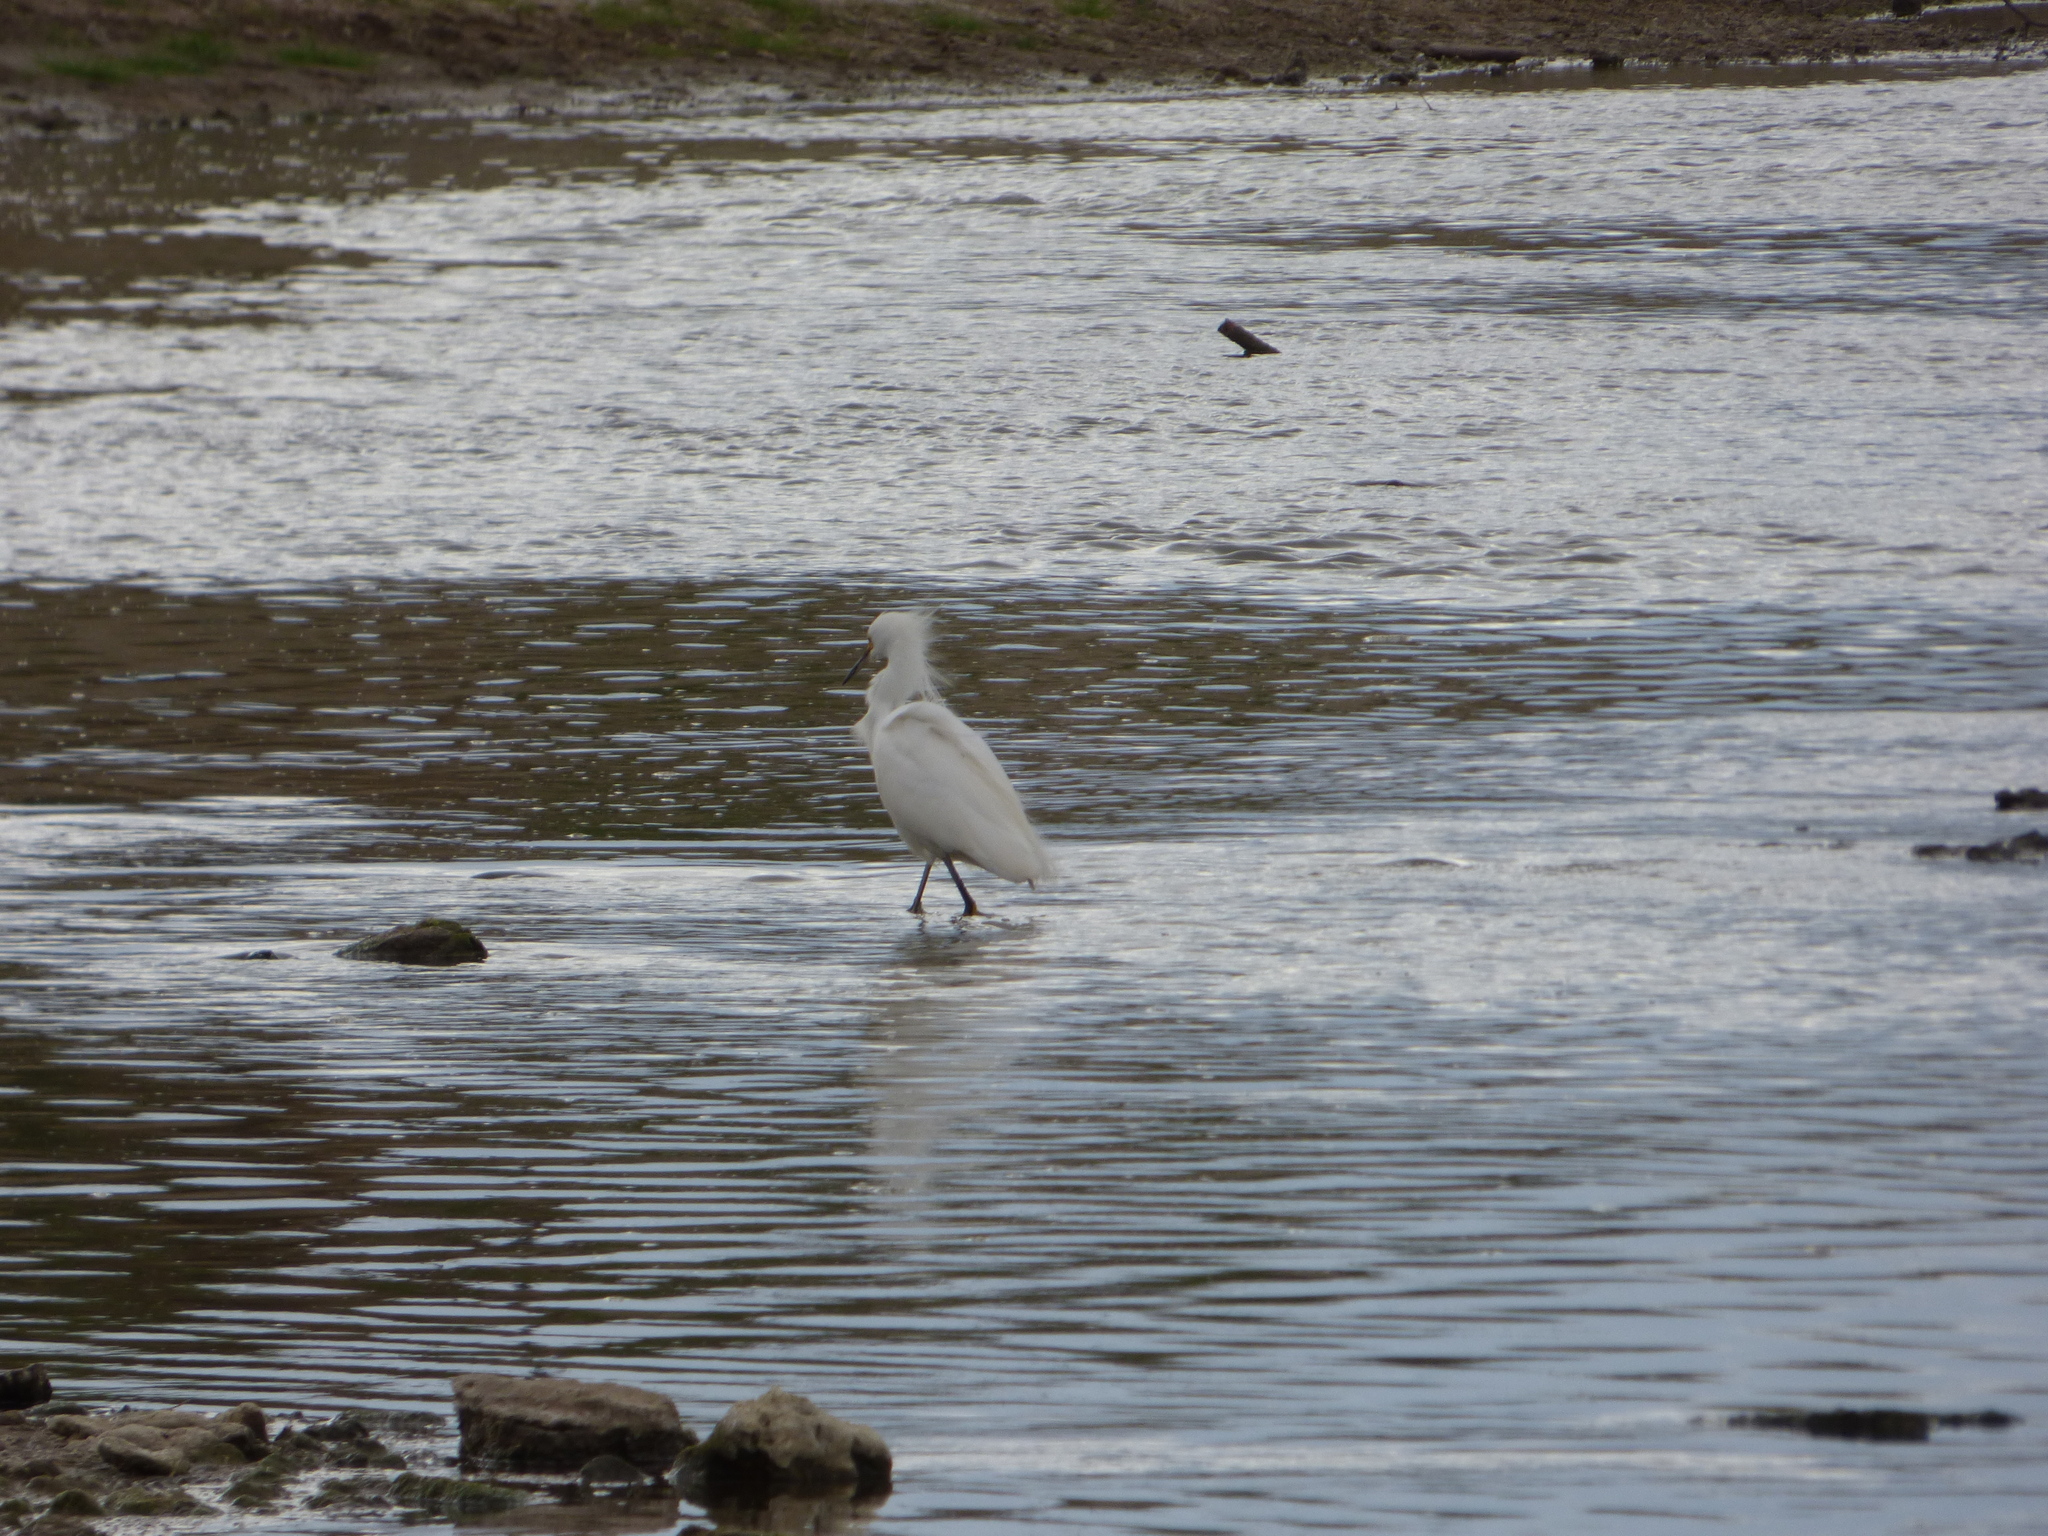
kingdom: Animalia
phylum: Chordata
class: Aves
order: Pelecaniformes
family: Ardeidae
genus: Egretta
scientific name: Egretta thula
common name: Snowy egret
